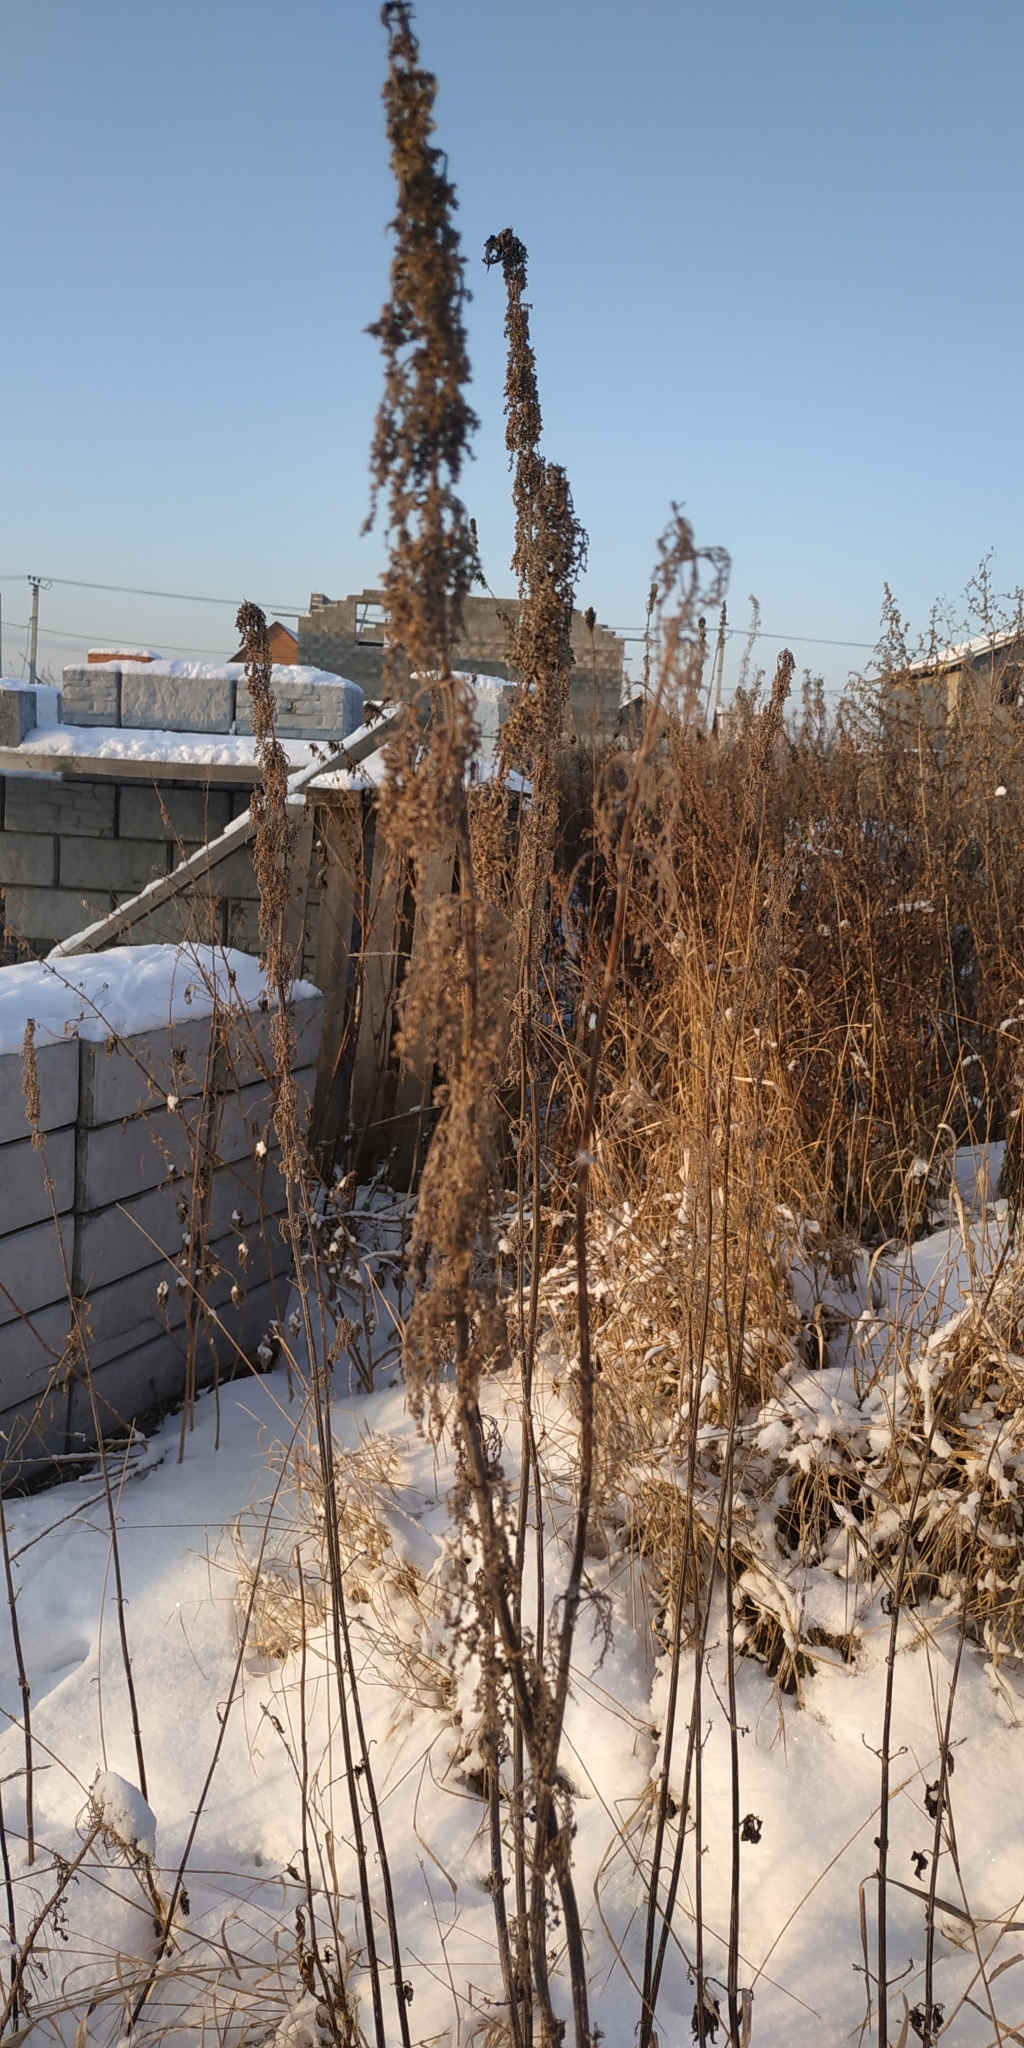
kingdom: Plantae
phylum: Tracheophyta
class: Magnoliopsida
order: Rosales
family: Urticaceae
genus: Urtica
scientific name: Urtica dioica
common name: Common nettle
